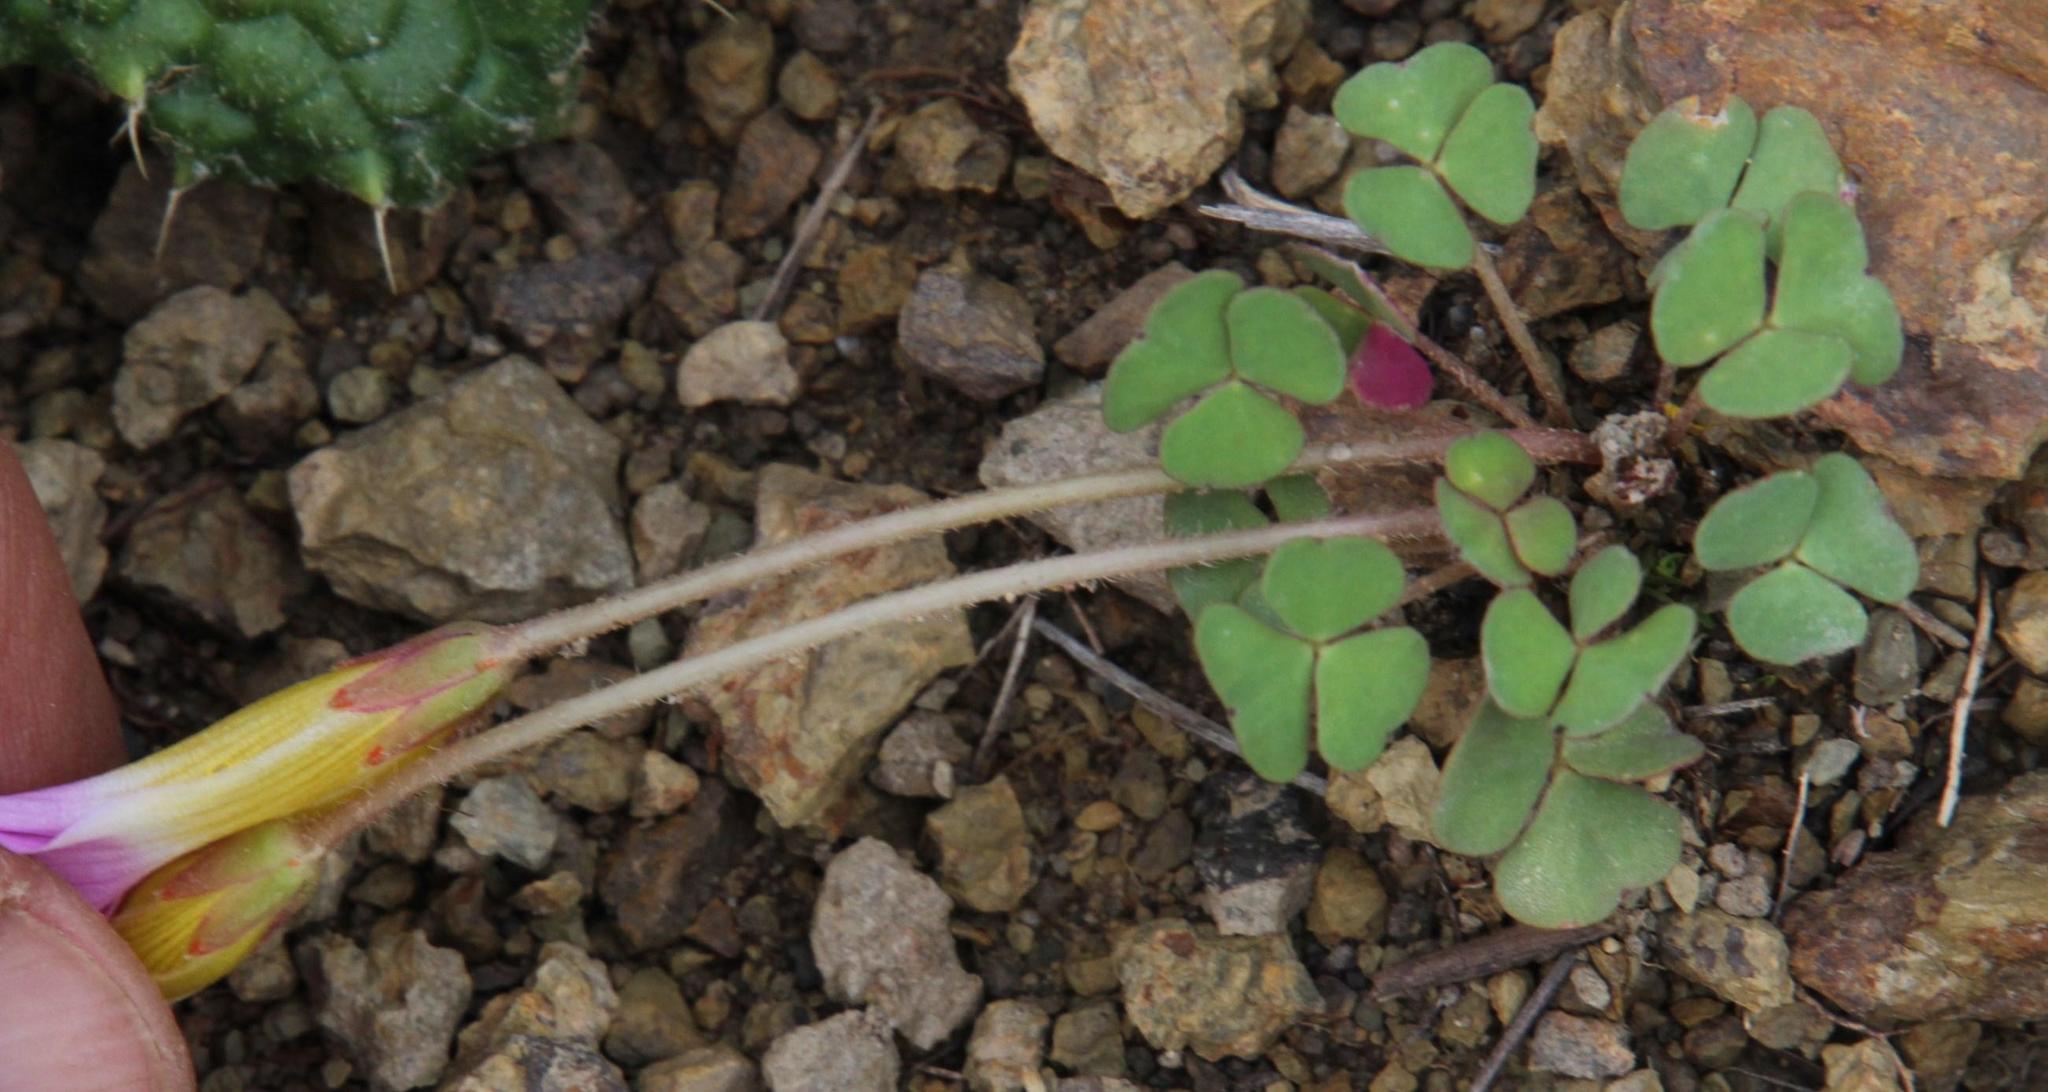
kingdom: Plantae
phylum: Tracheophyta
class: Magnoliopsida
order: Oxalidales
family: Oxalidaceae
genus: Oxalis
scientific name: Oxalis obliquifolia
